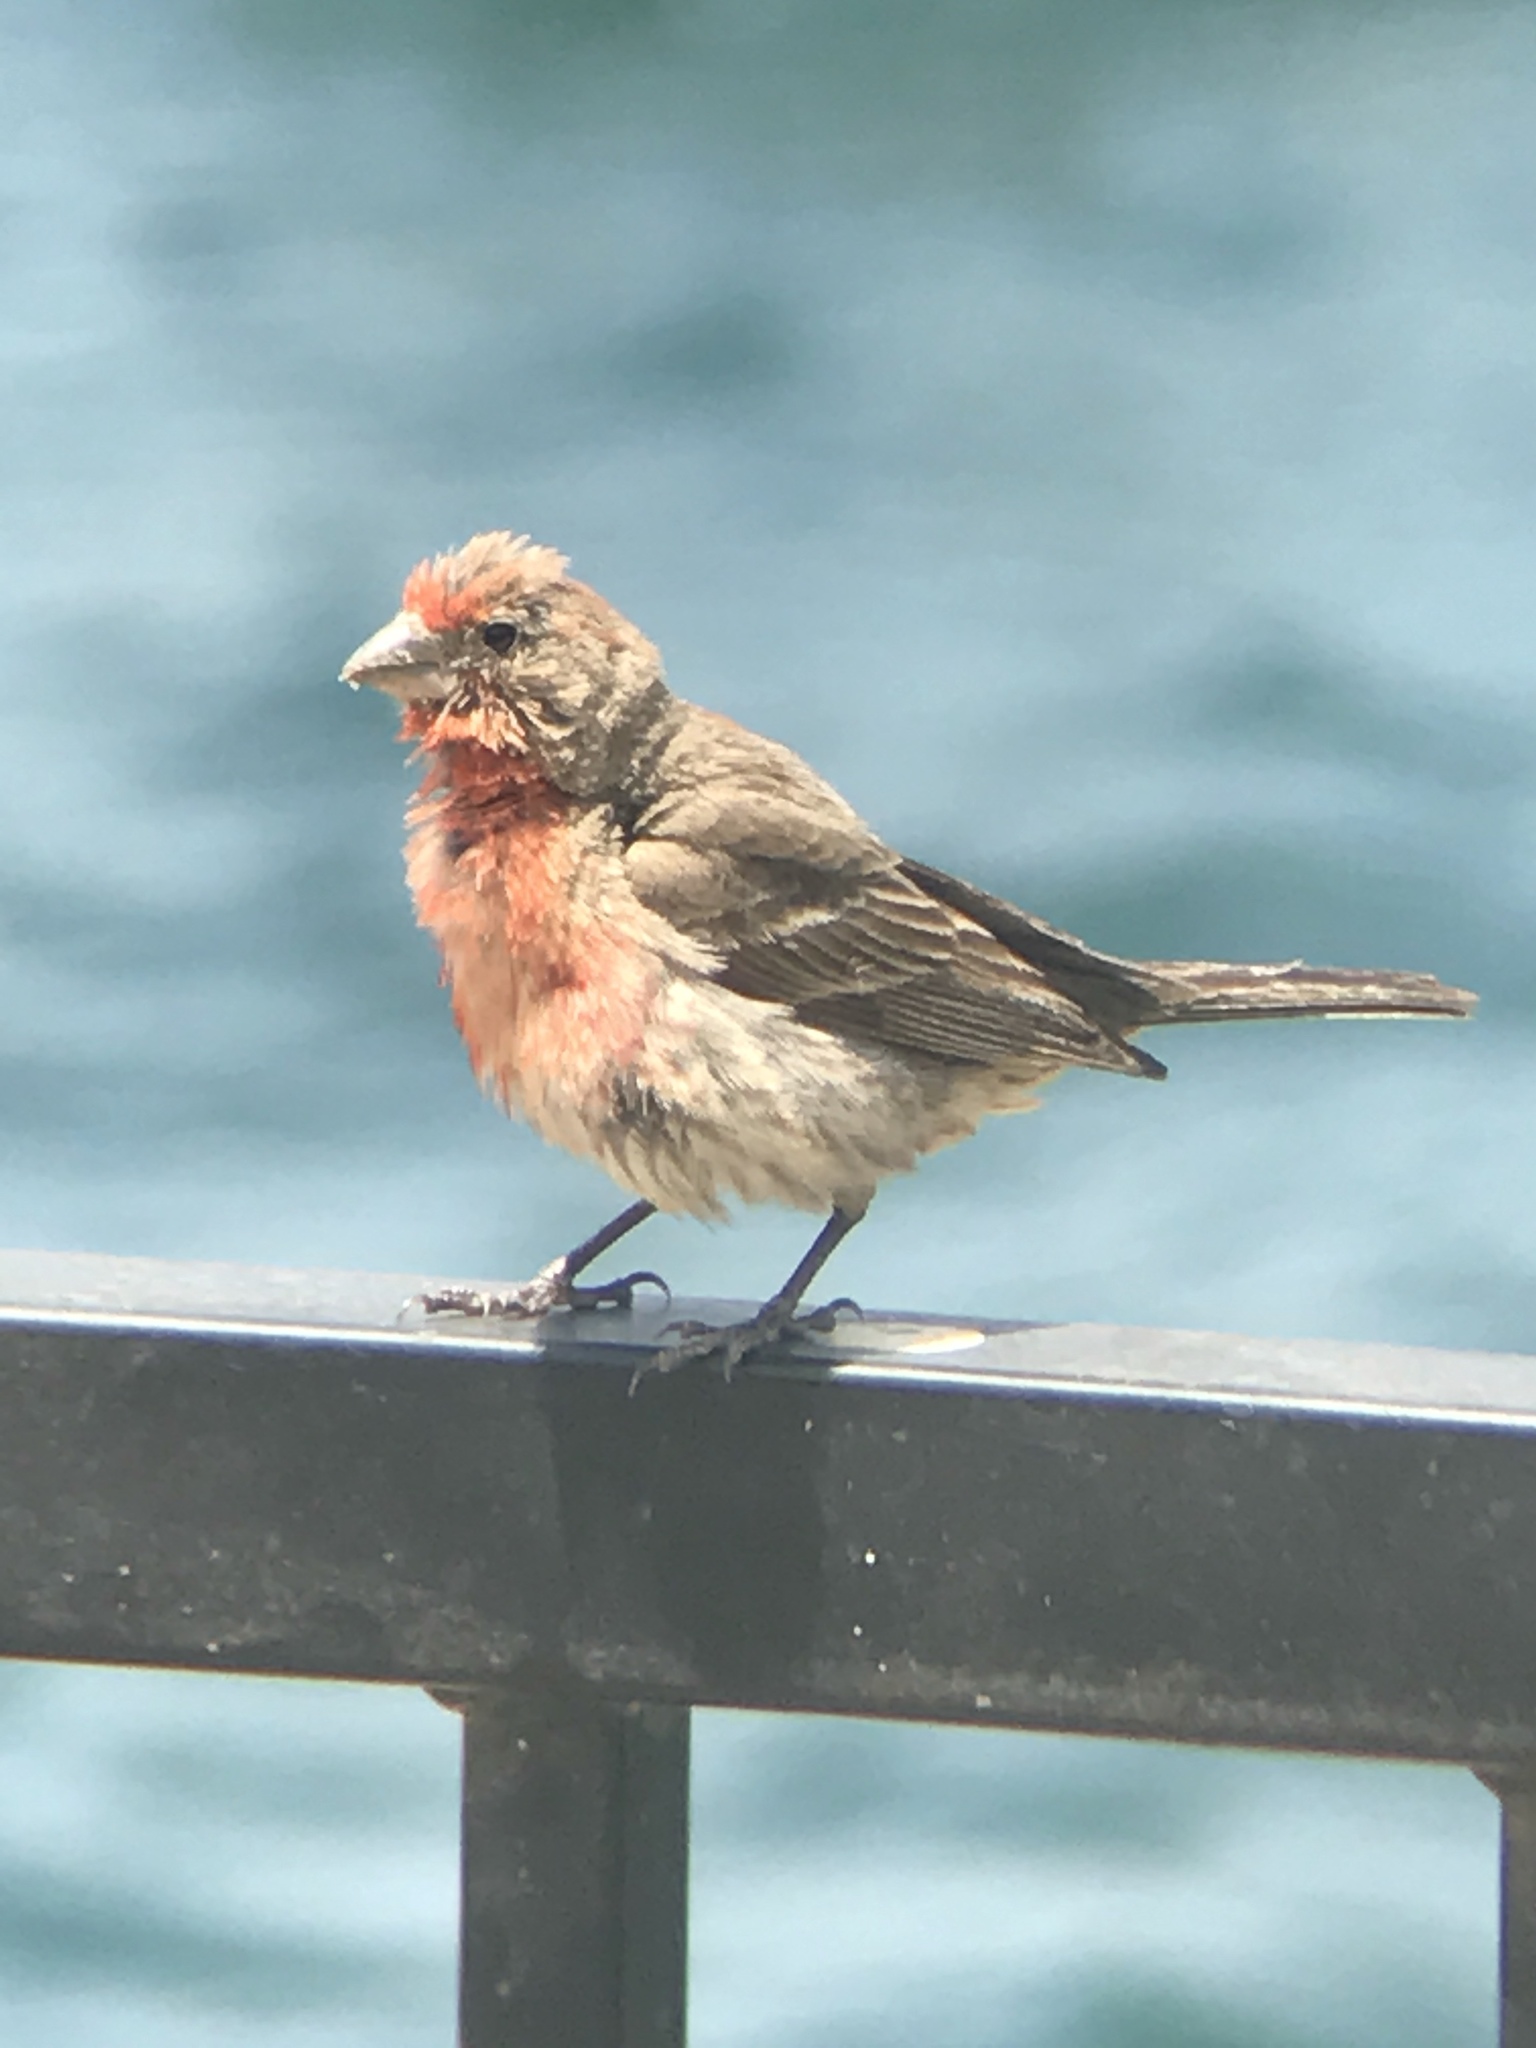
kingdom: Animalia
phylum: Chordata
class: Aves
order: Passeriformes
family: Fringillidae
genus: Haemorhous
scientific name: Haemorhous mexicanus
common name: House finch
